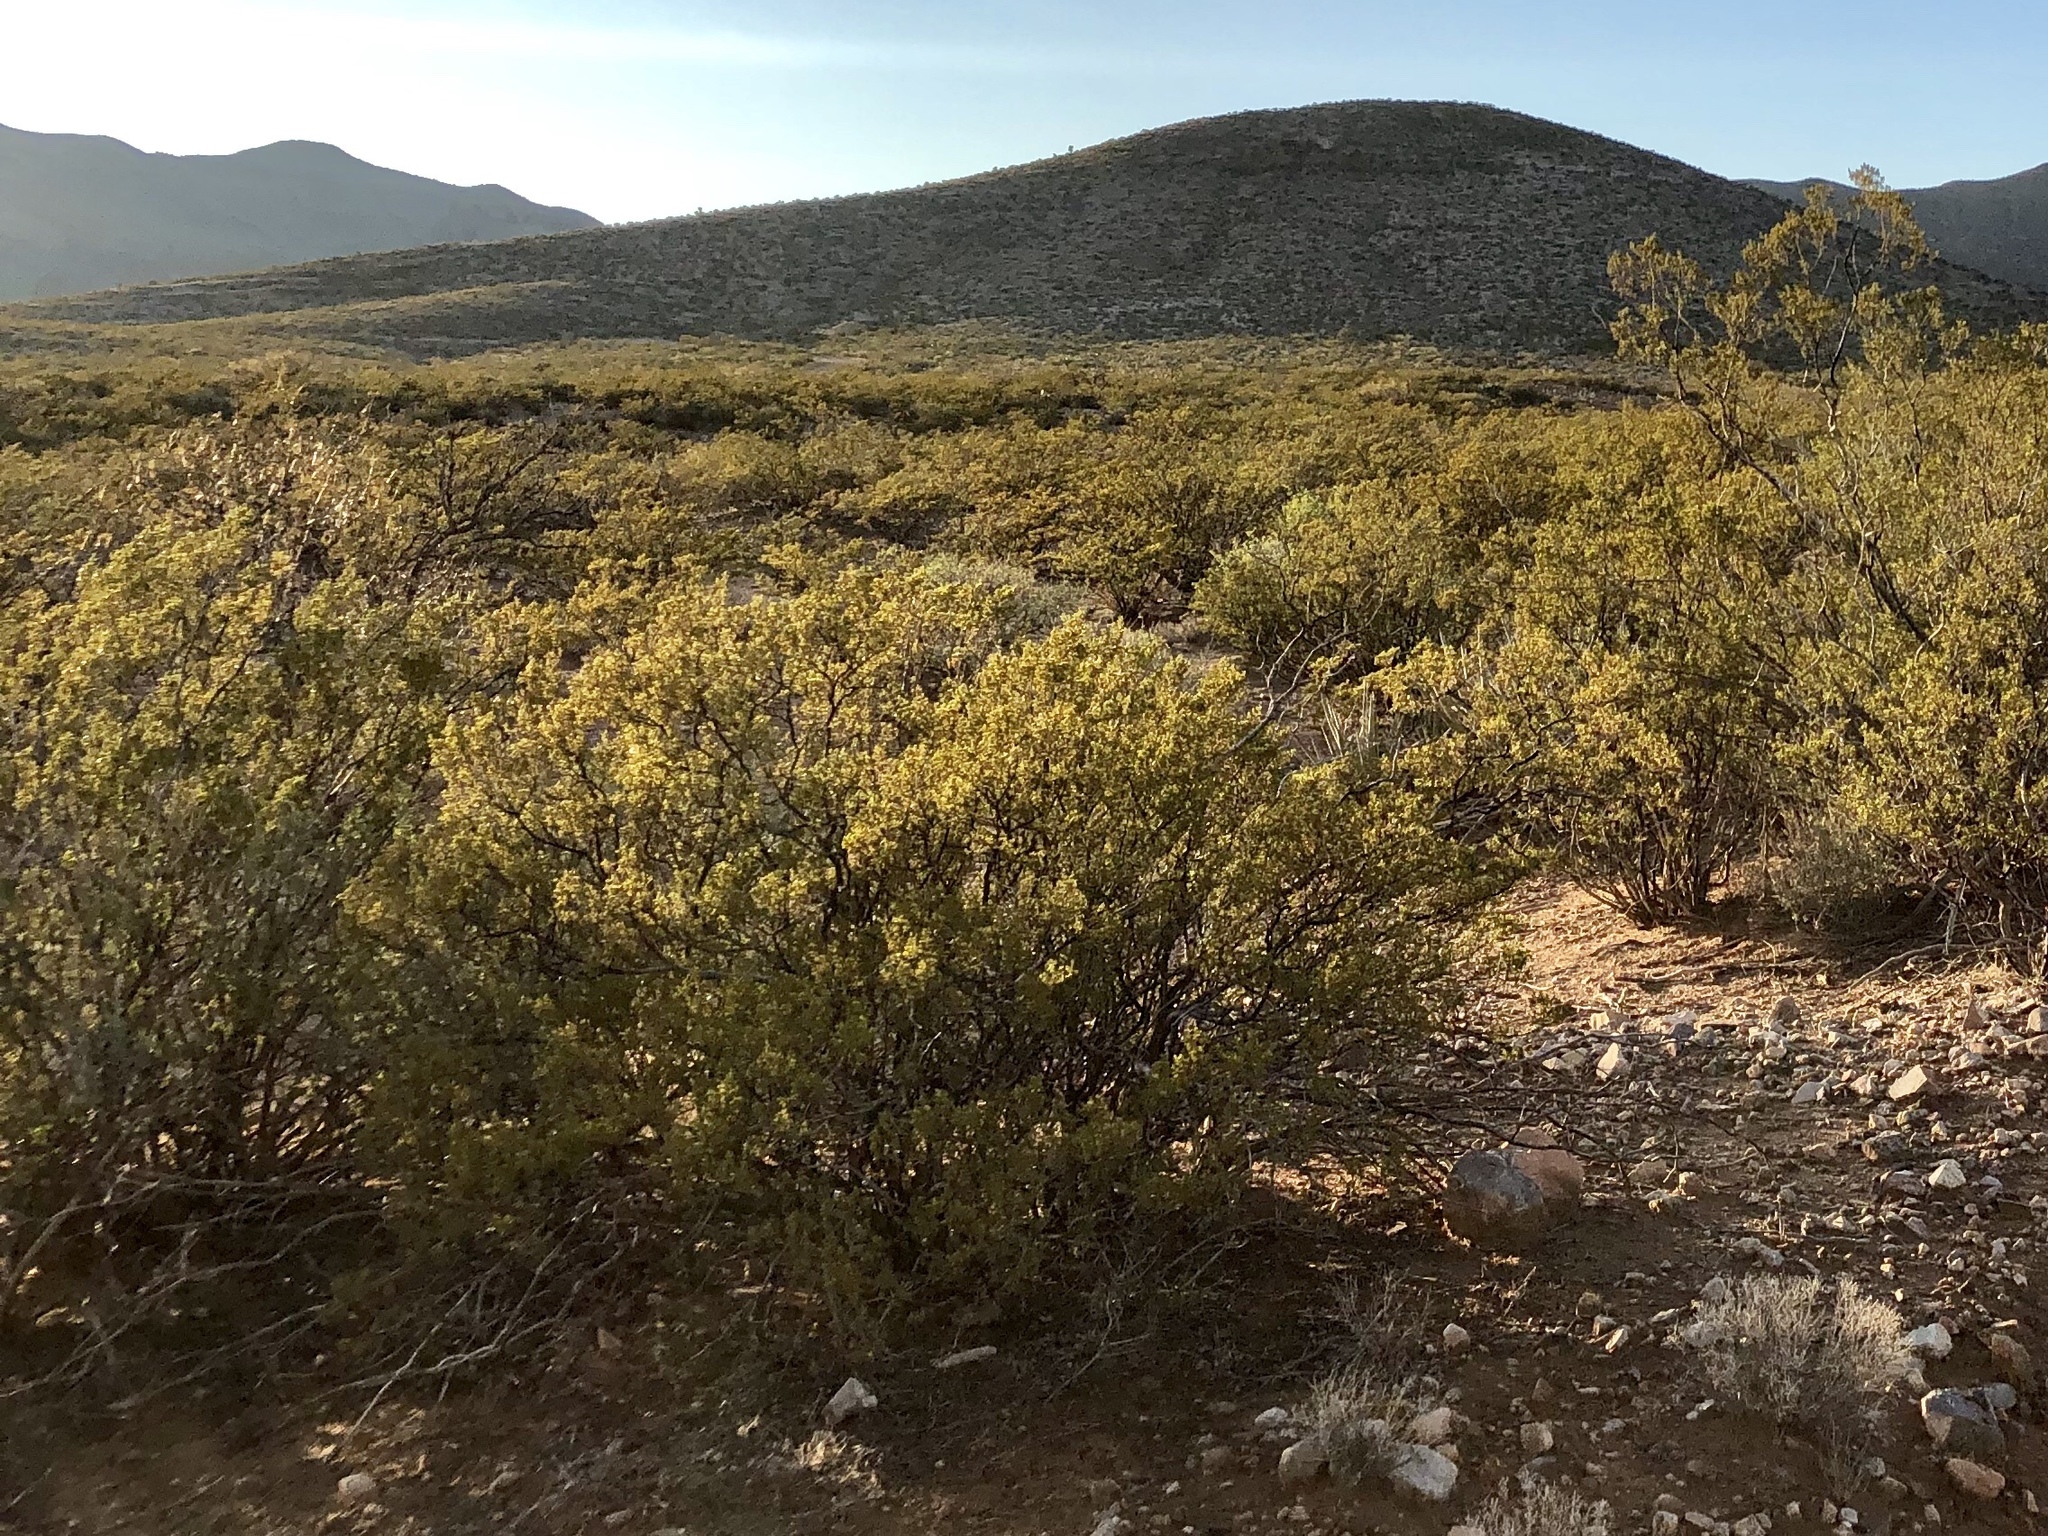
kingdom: Plantae
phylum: Tracheophyta
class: Magnoliopsida
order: Zygophyllales
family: Zygophyllaceae
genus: Larrea
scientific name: Larrea tridentata
